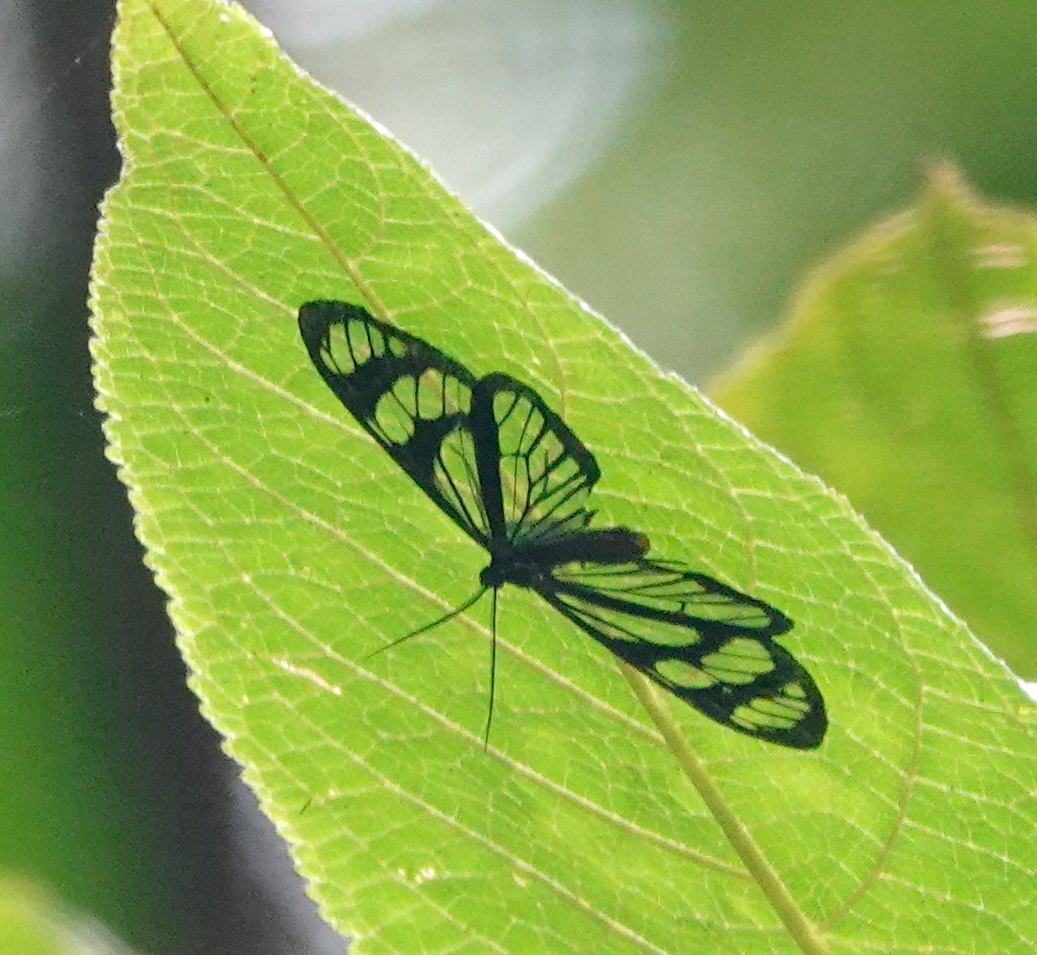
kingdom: Animalia
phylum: Arthropoda
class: Insecta
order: Lepidoptera
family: Notodontidae
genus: Phanoptis
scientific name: Phanoptis cyanomelas
